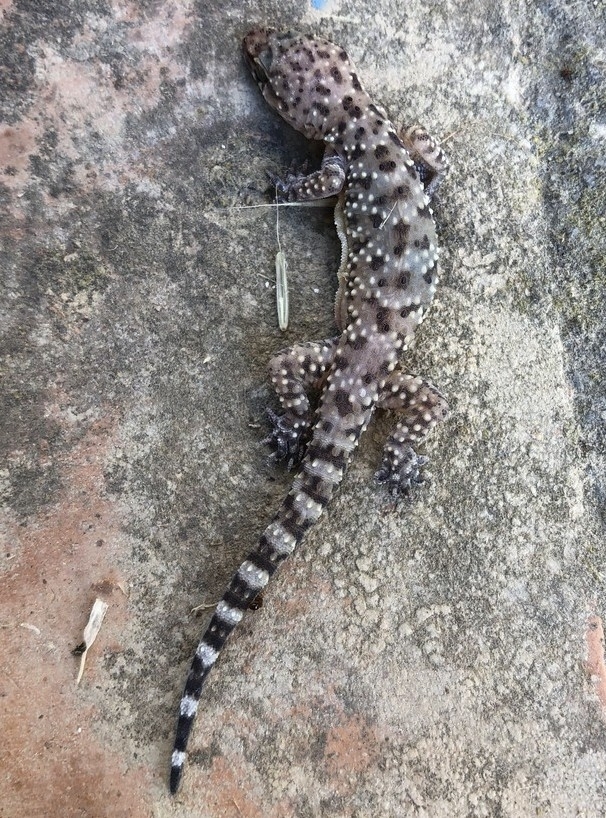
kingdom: Animalia
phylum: Chordata
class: Squamata
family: Gekkonidae
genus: Hemidactylus
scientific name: Hemidactylus turcicus
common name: Turkish gecko
